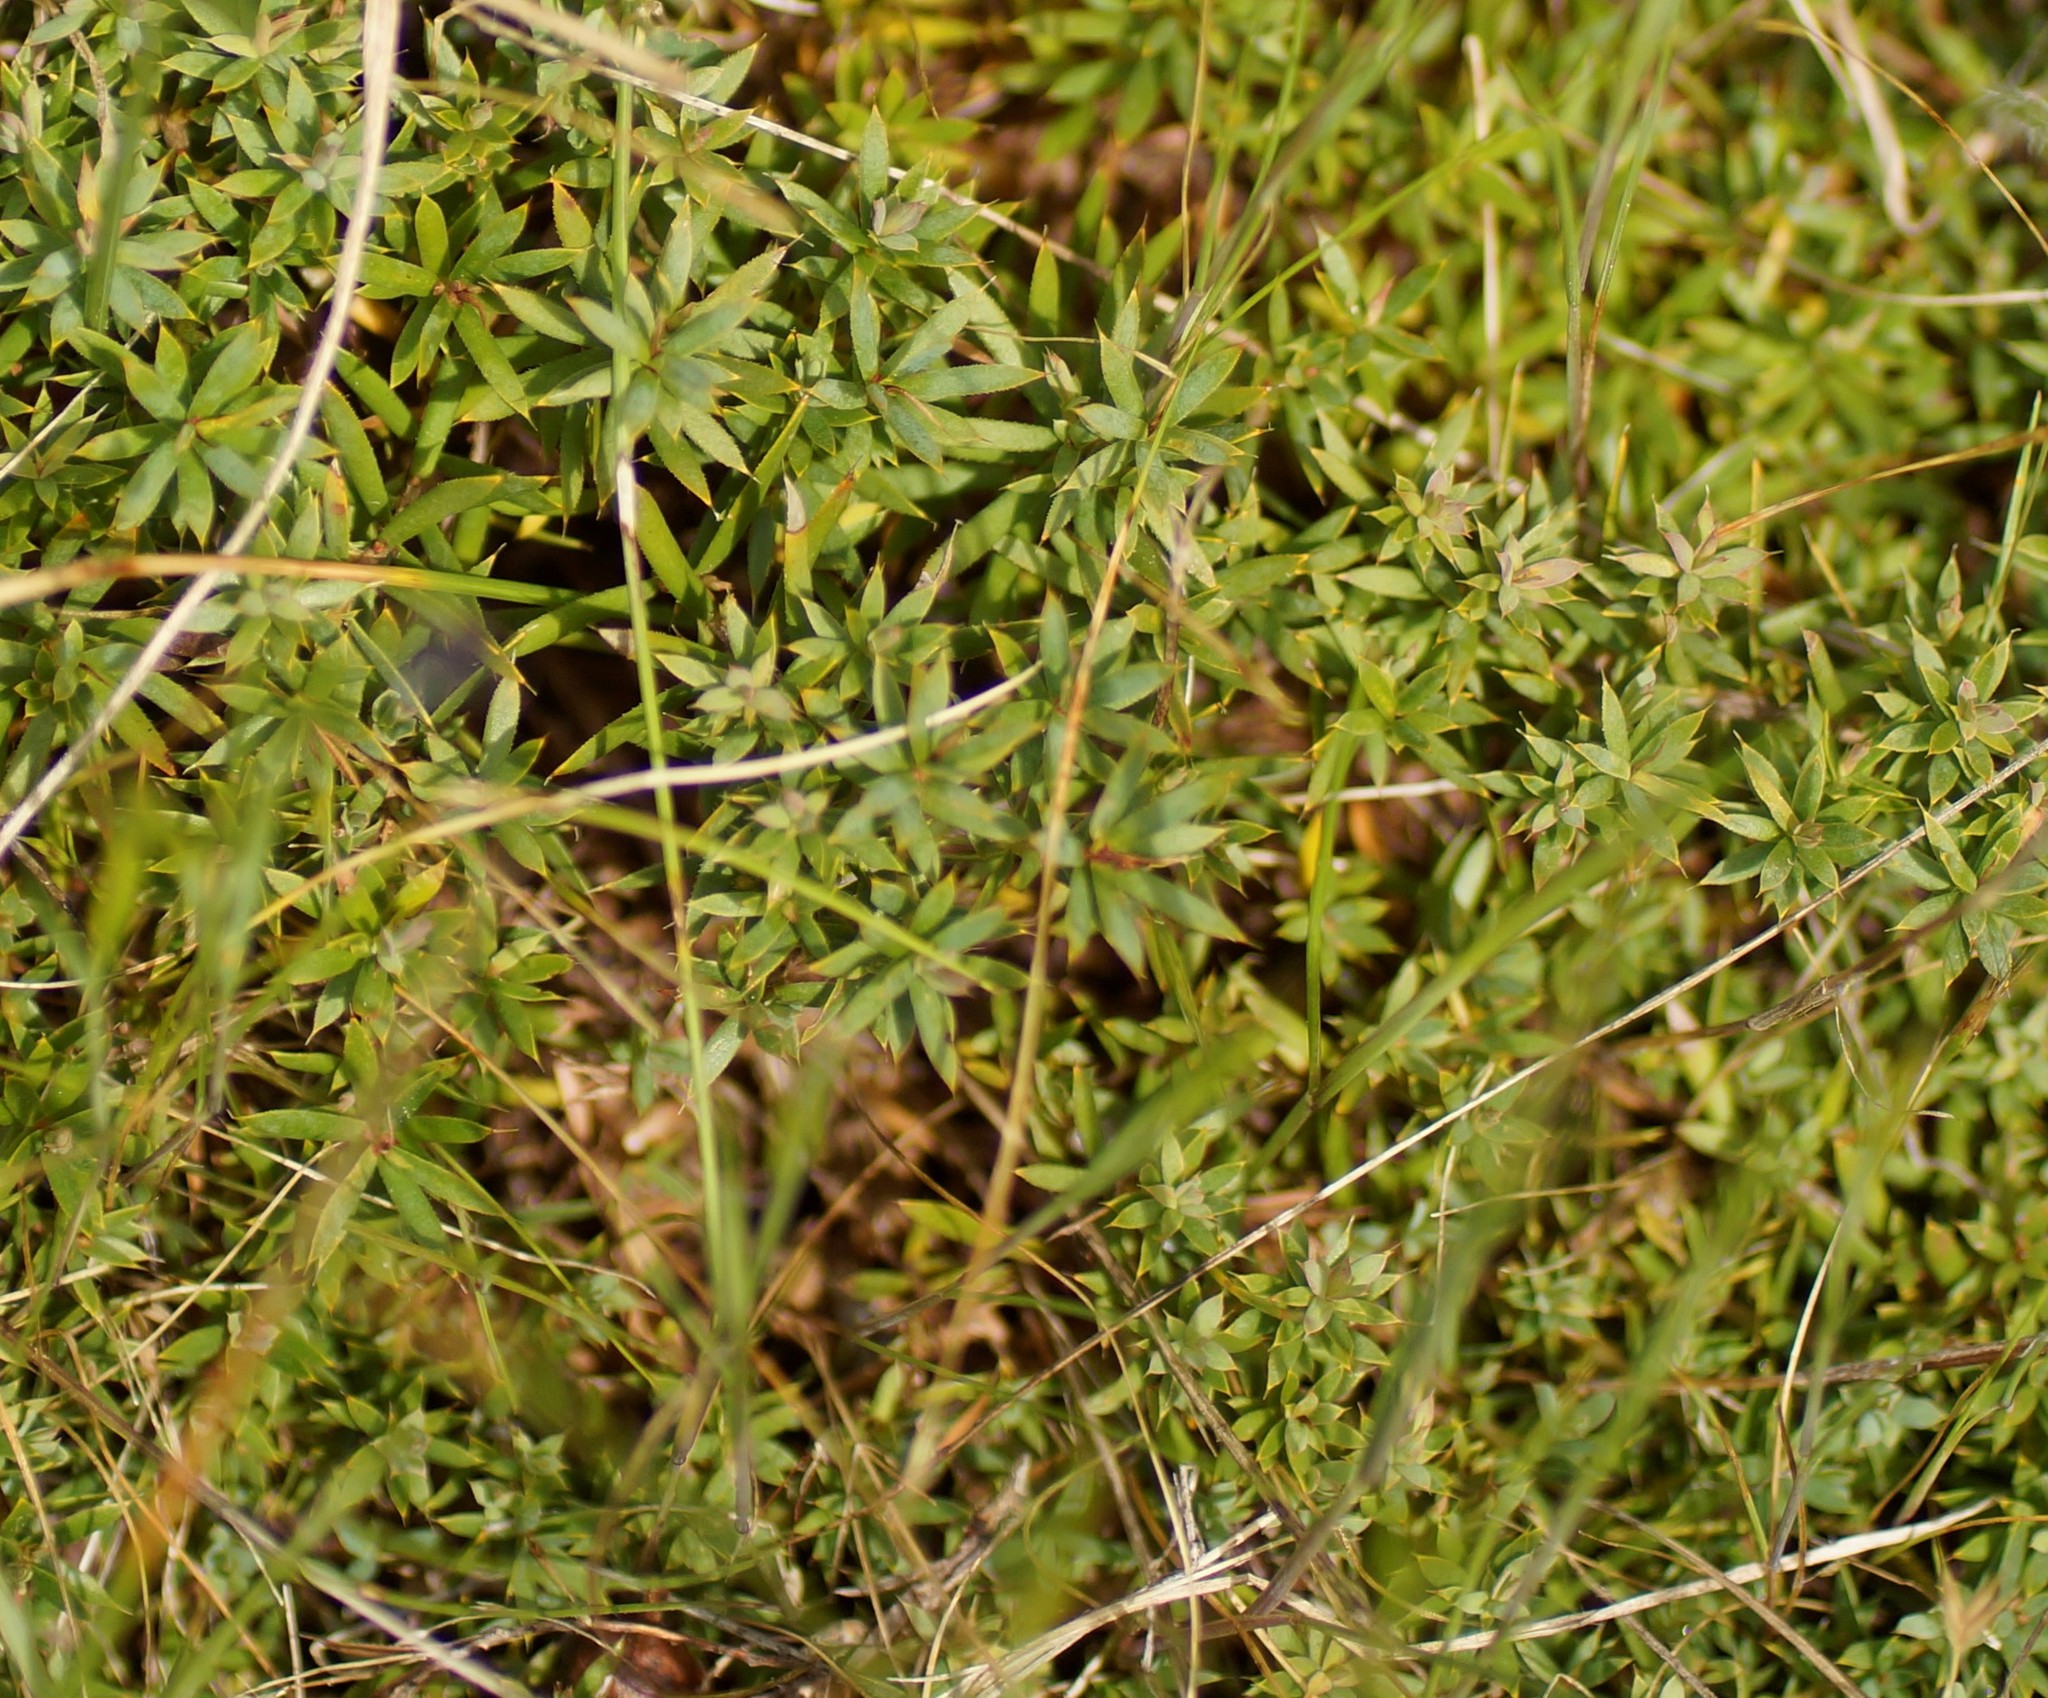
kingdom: Plantae
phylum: Tracheophyta
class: Magnoliopsida
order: Ericales
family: Ericaceae
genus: Styphelia
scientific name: Styphelia humifusa
